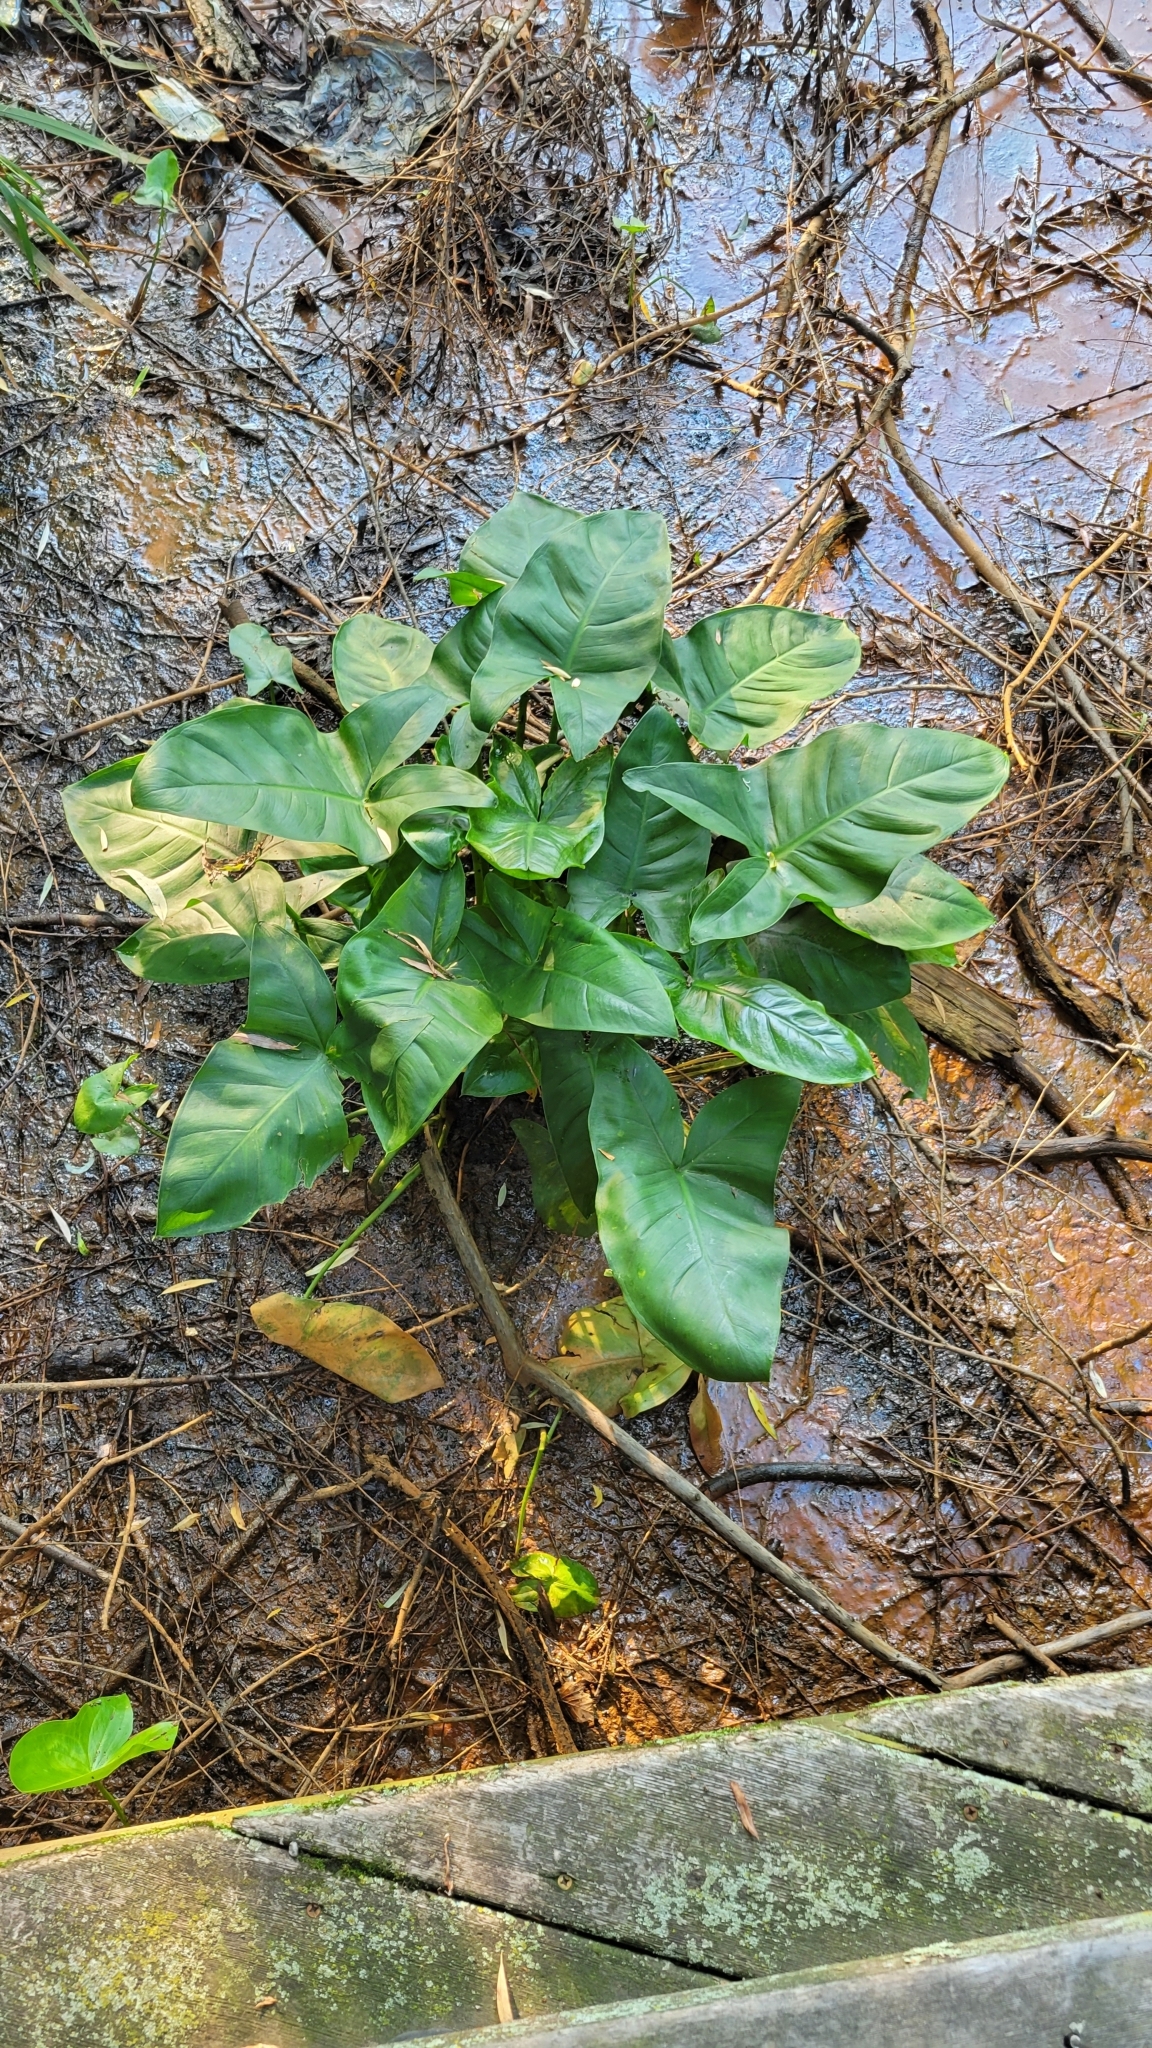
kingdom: Plantae
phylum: Tracheophyta
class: Liliopsida
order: Alismatales
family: Araceae
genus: Peltandra
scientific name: Peltandra virginica
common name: Arrow arum
